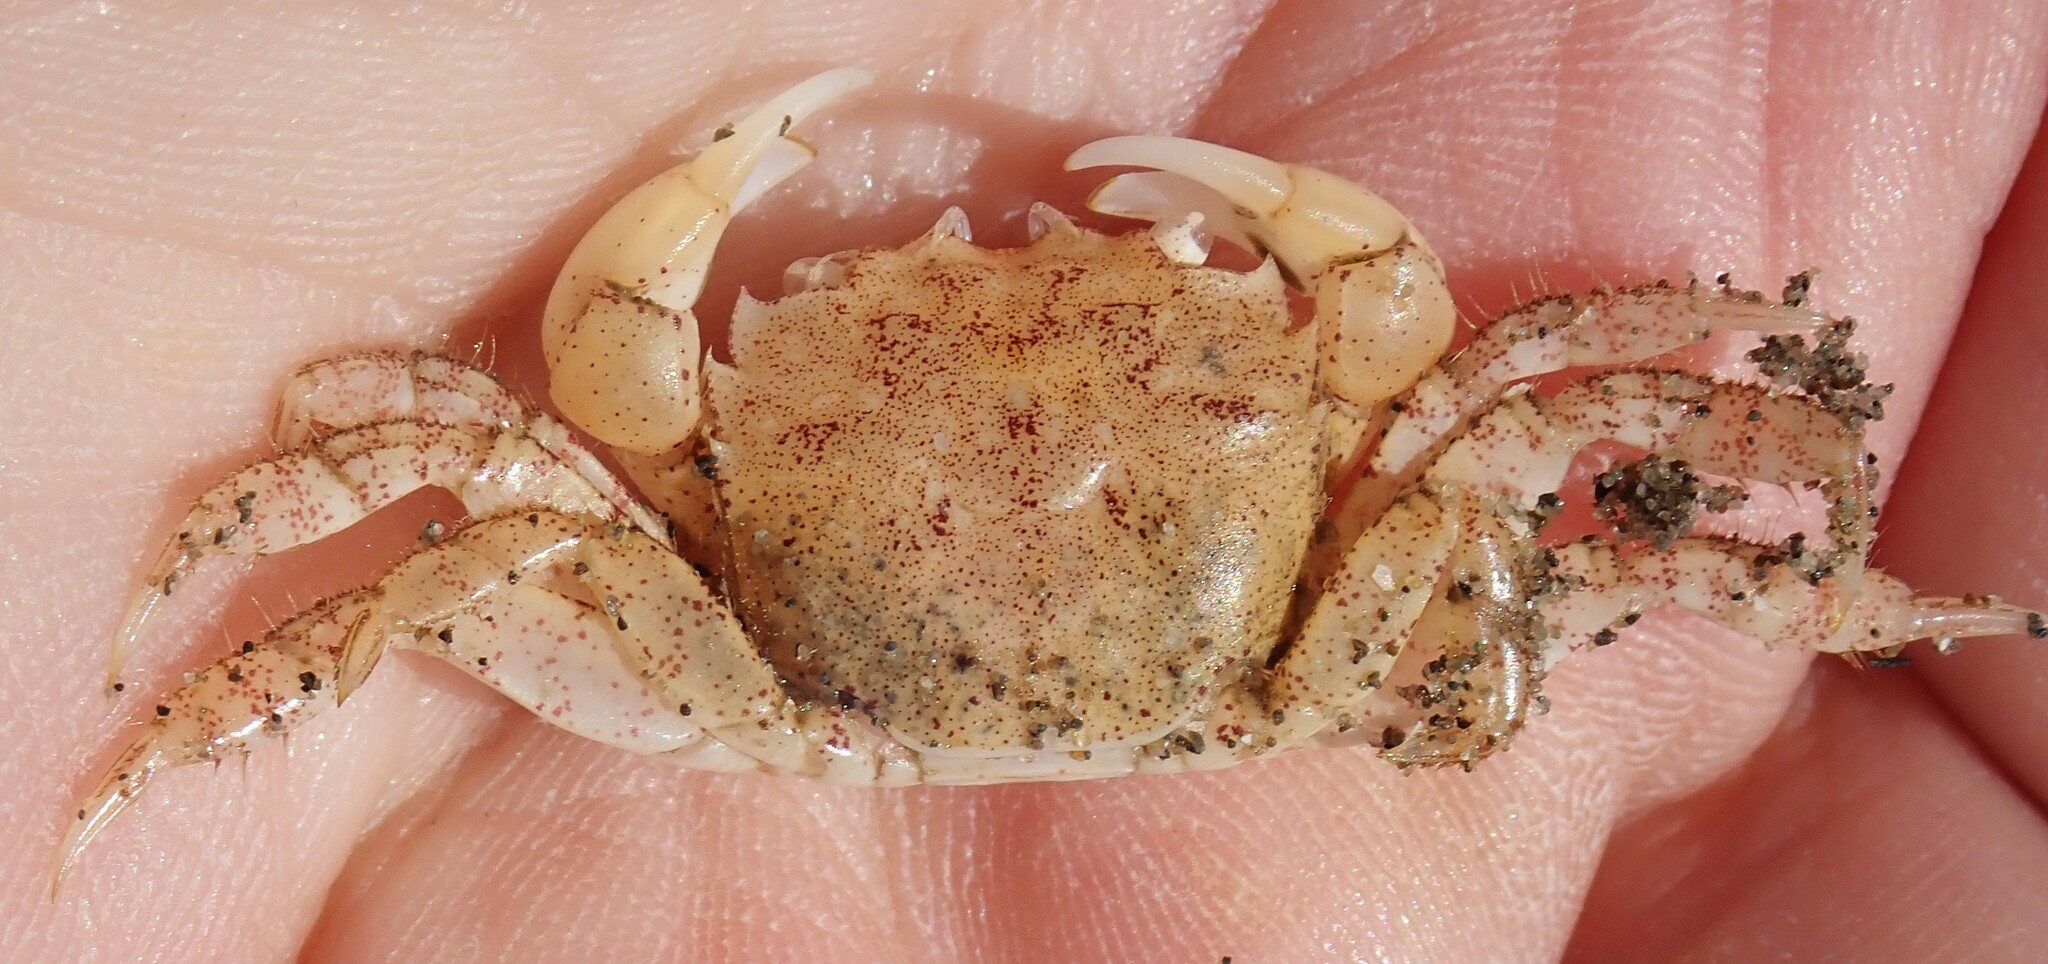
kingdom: Animalia
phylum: Arthropoda
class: Malacostraca
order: Decapoda
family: Varunidae
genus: Hemigrapsus
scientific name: Hemigrapsus oregonensis
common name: Yellow shore crab
